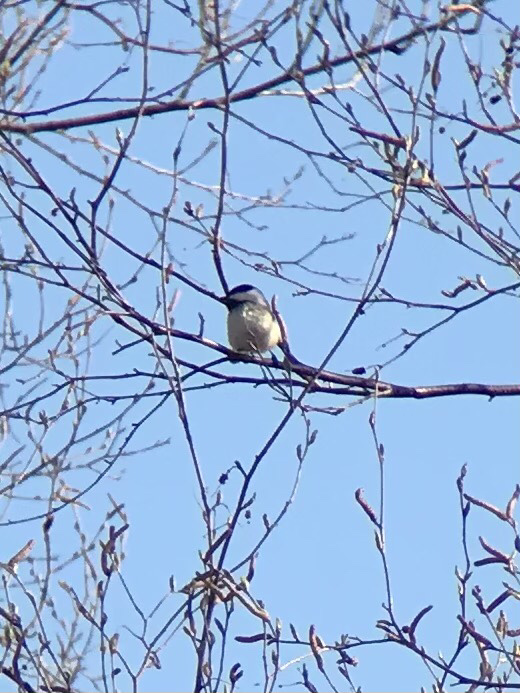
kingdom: Animalia
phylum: Chordata
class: Aves
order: Passeriformes
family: Paridae
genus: Poecile
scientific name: Poecile atricapillus
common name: Black-capped chickadee
